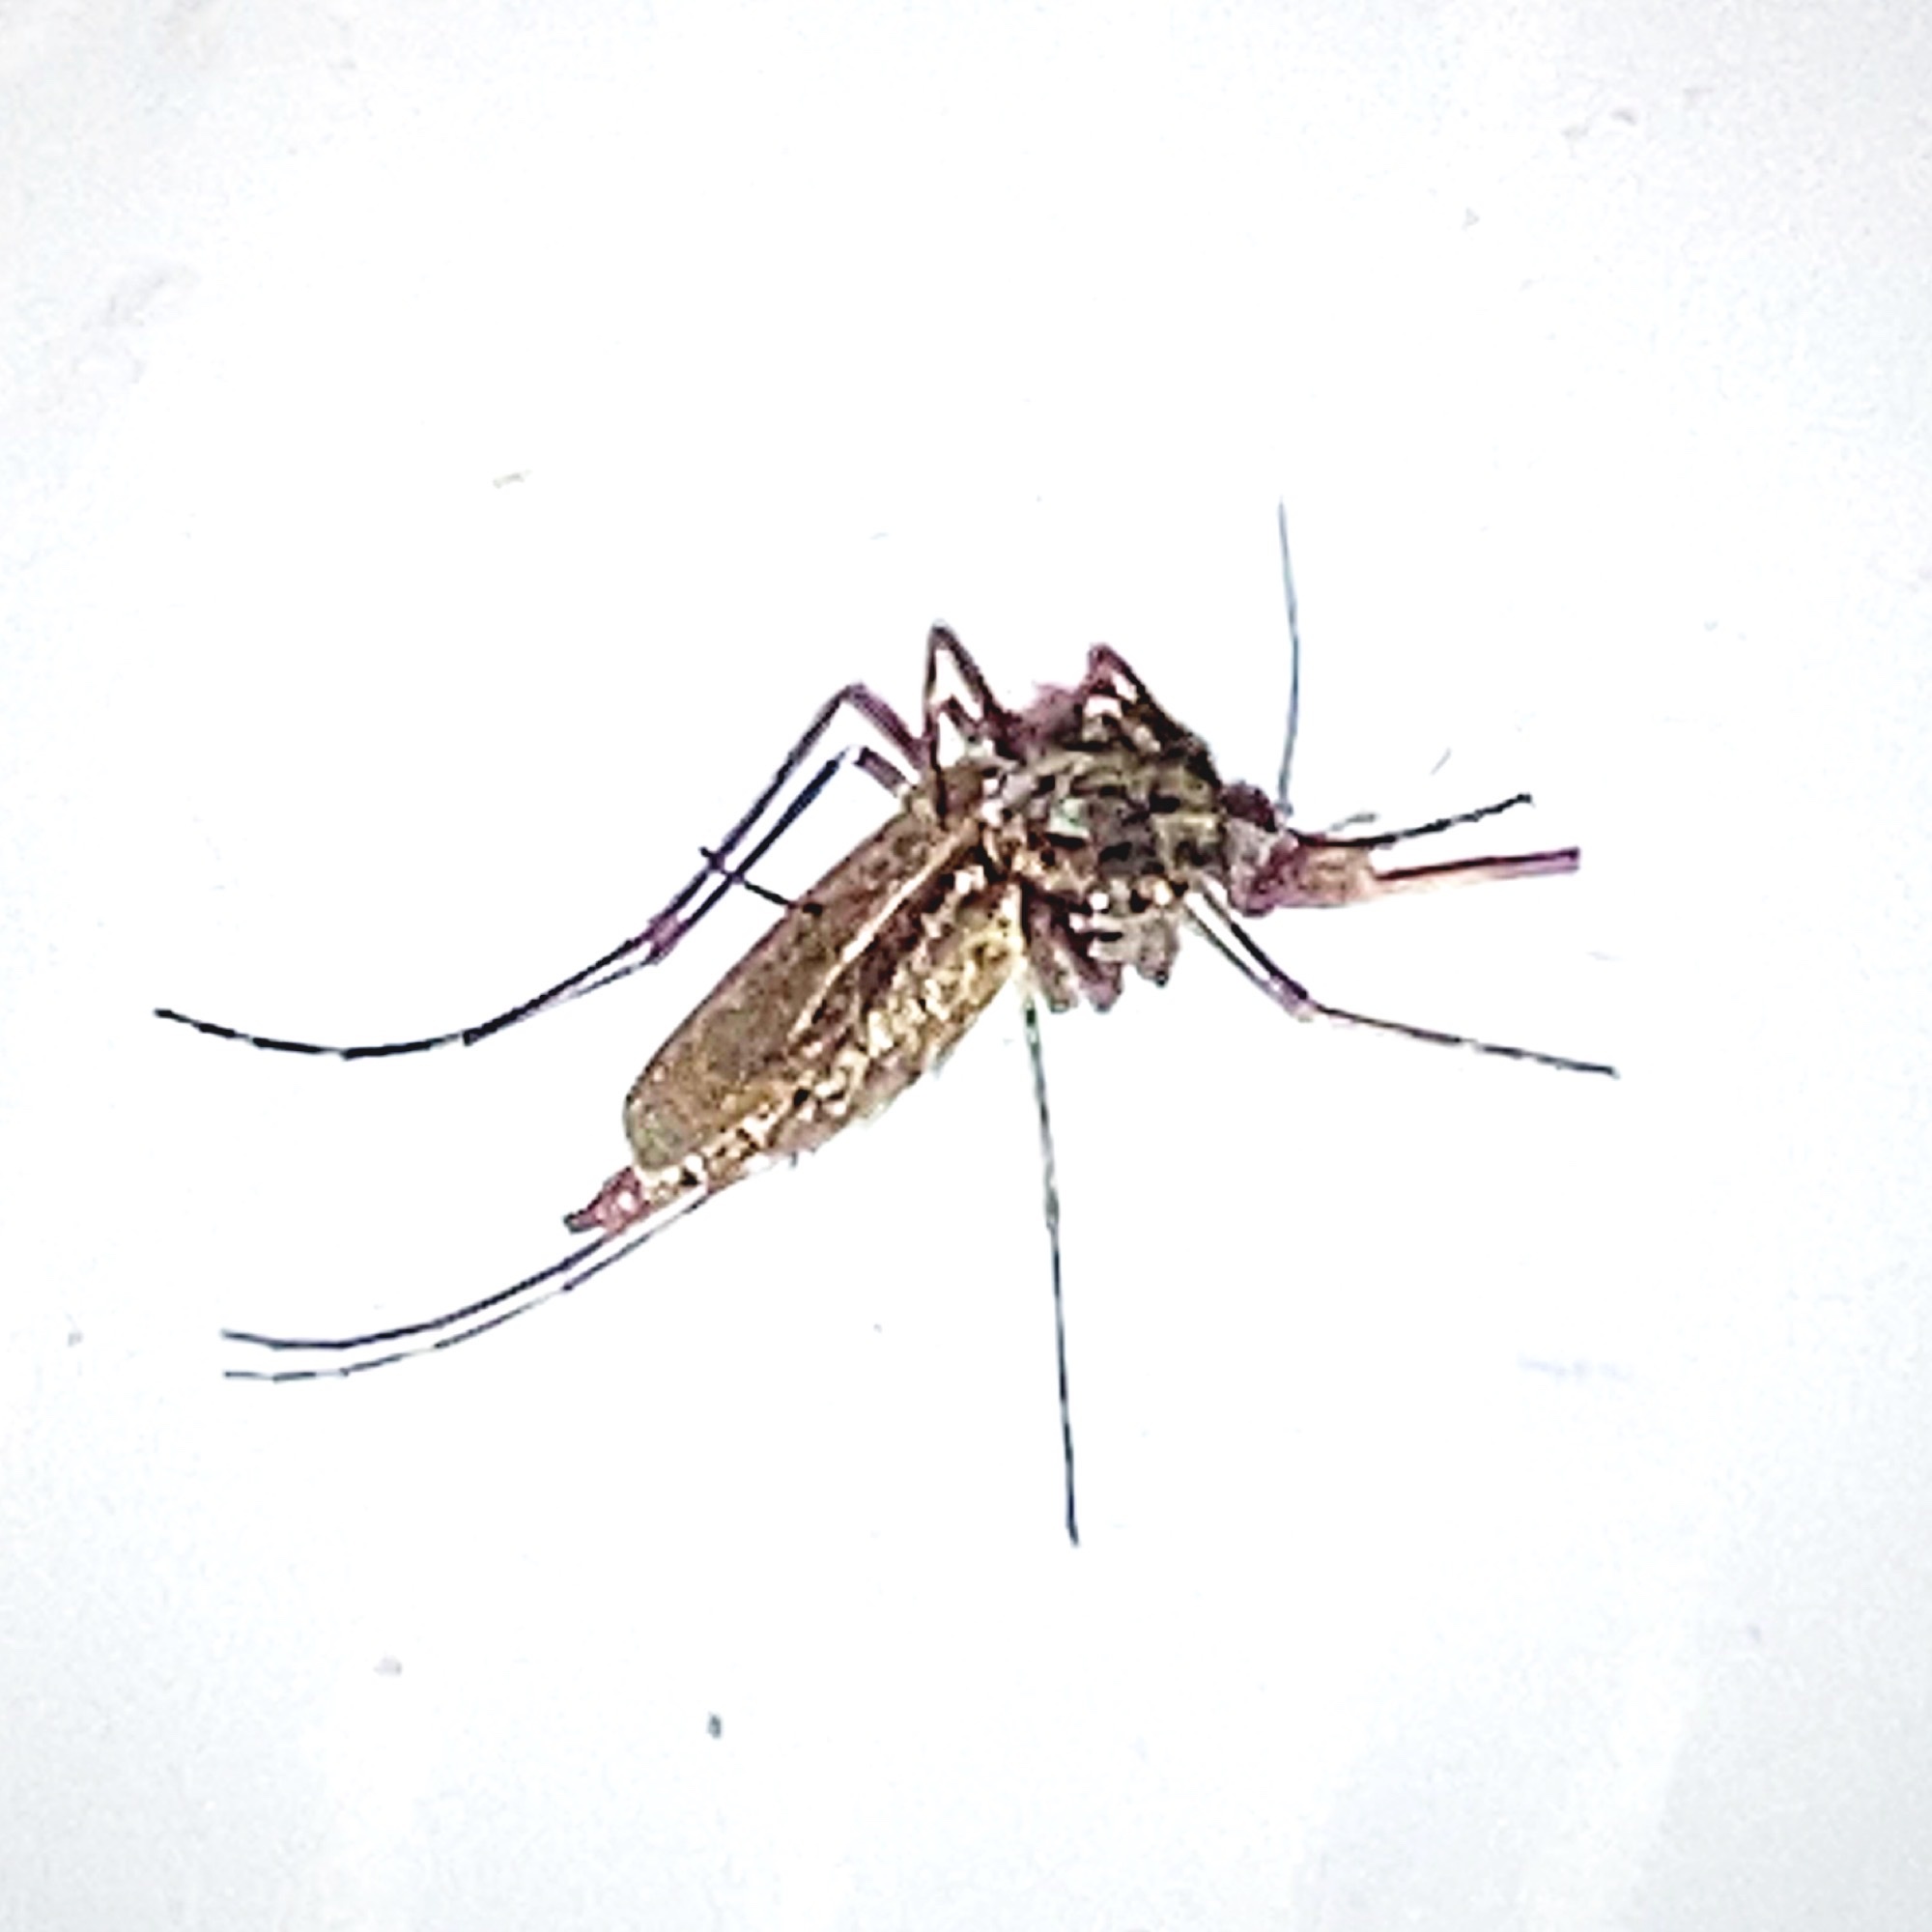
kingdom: Animalia
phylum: Arthropoda
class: Insecta
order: Diptera
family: Culicidae
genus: Psorophora
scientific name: Psorophora columbiae
